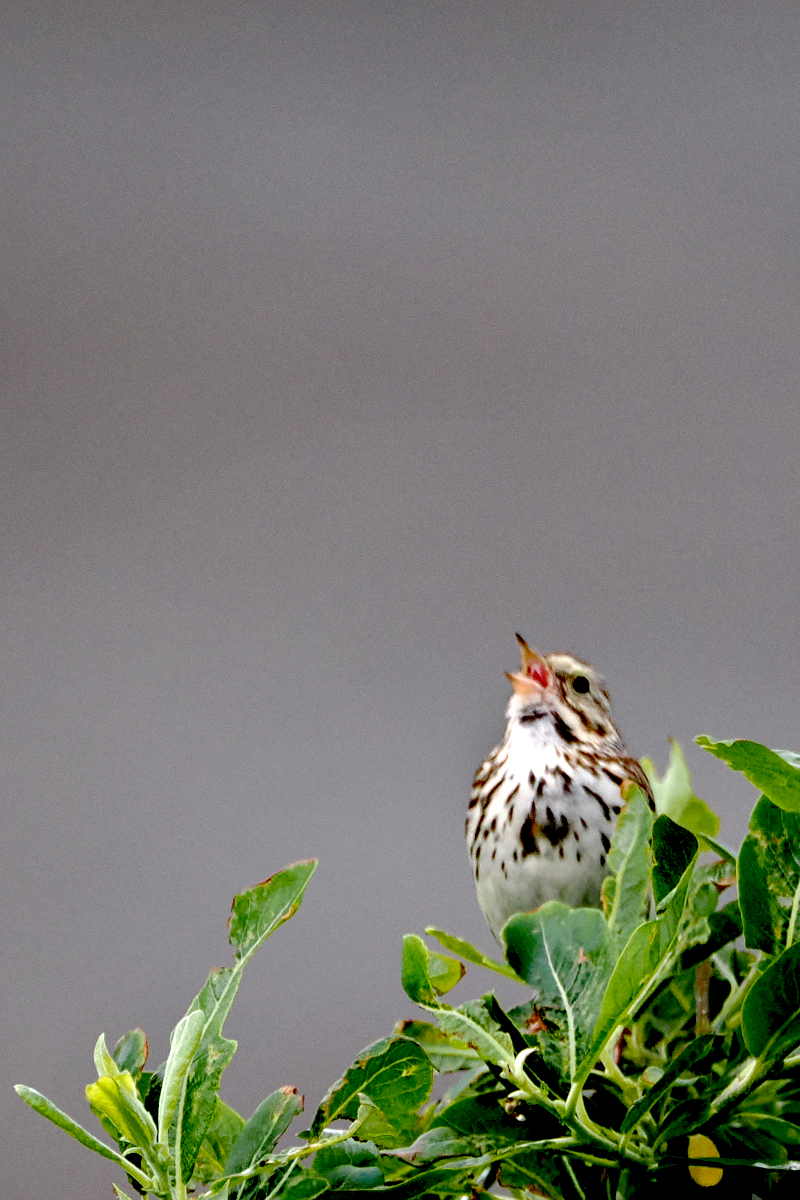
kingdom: Animalia
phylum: Chordata
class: Aves
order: Passeriformes
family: Passerellidae
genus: Passerculus
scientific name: Passerculus sandwichensis
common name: Savannah sparrow
